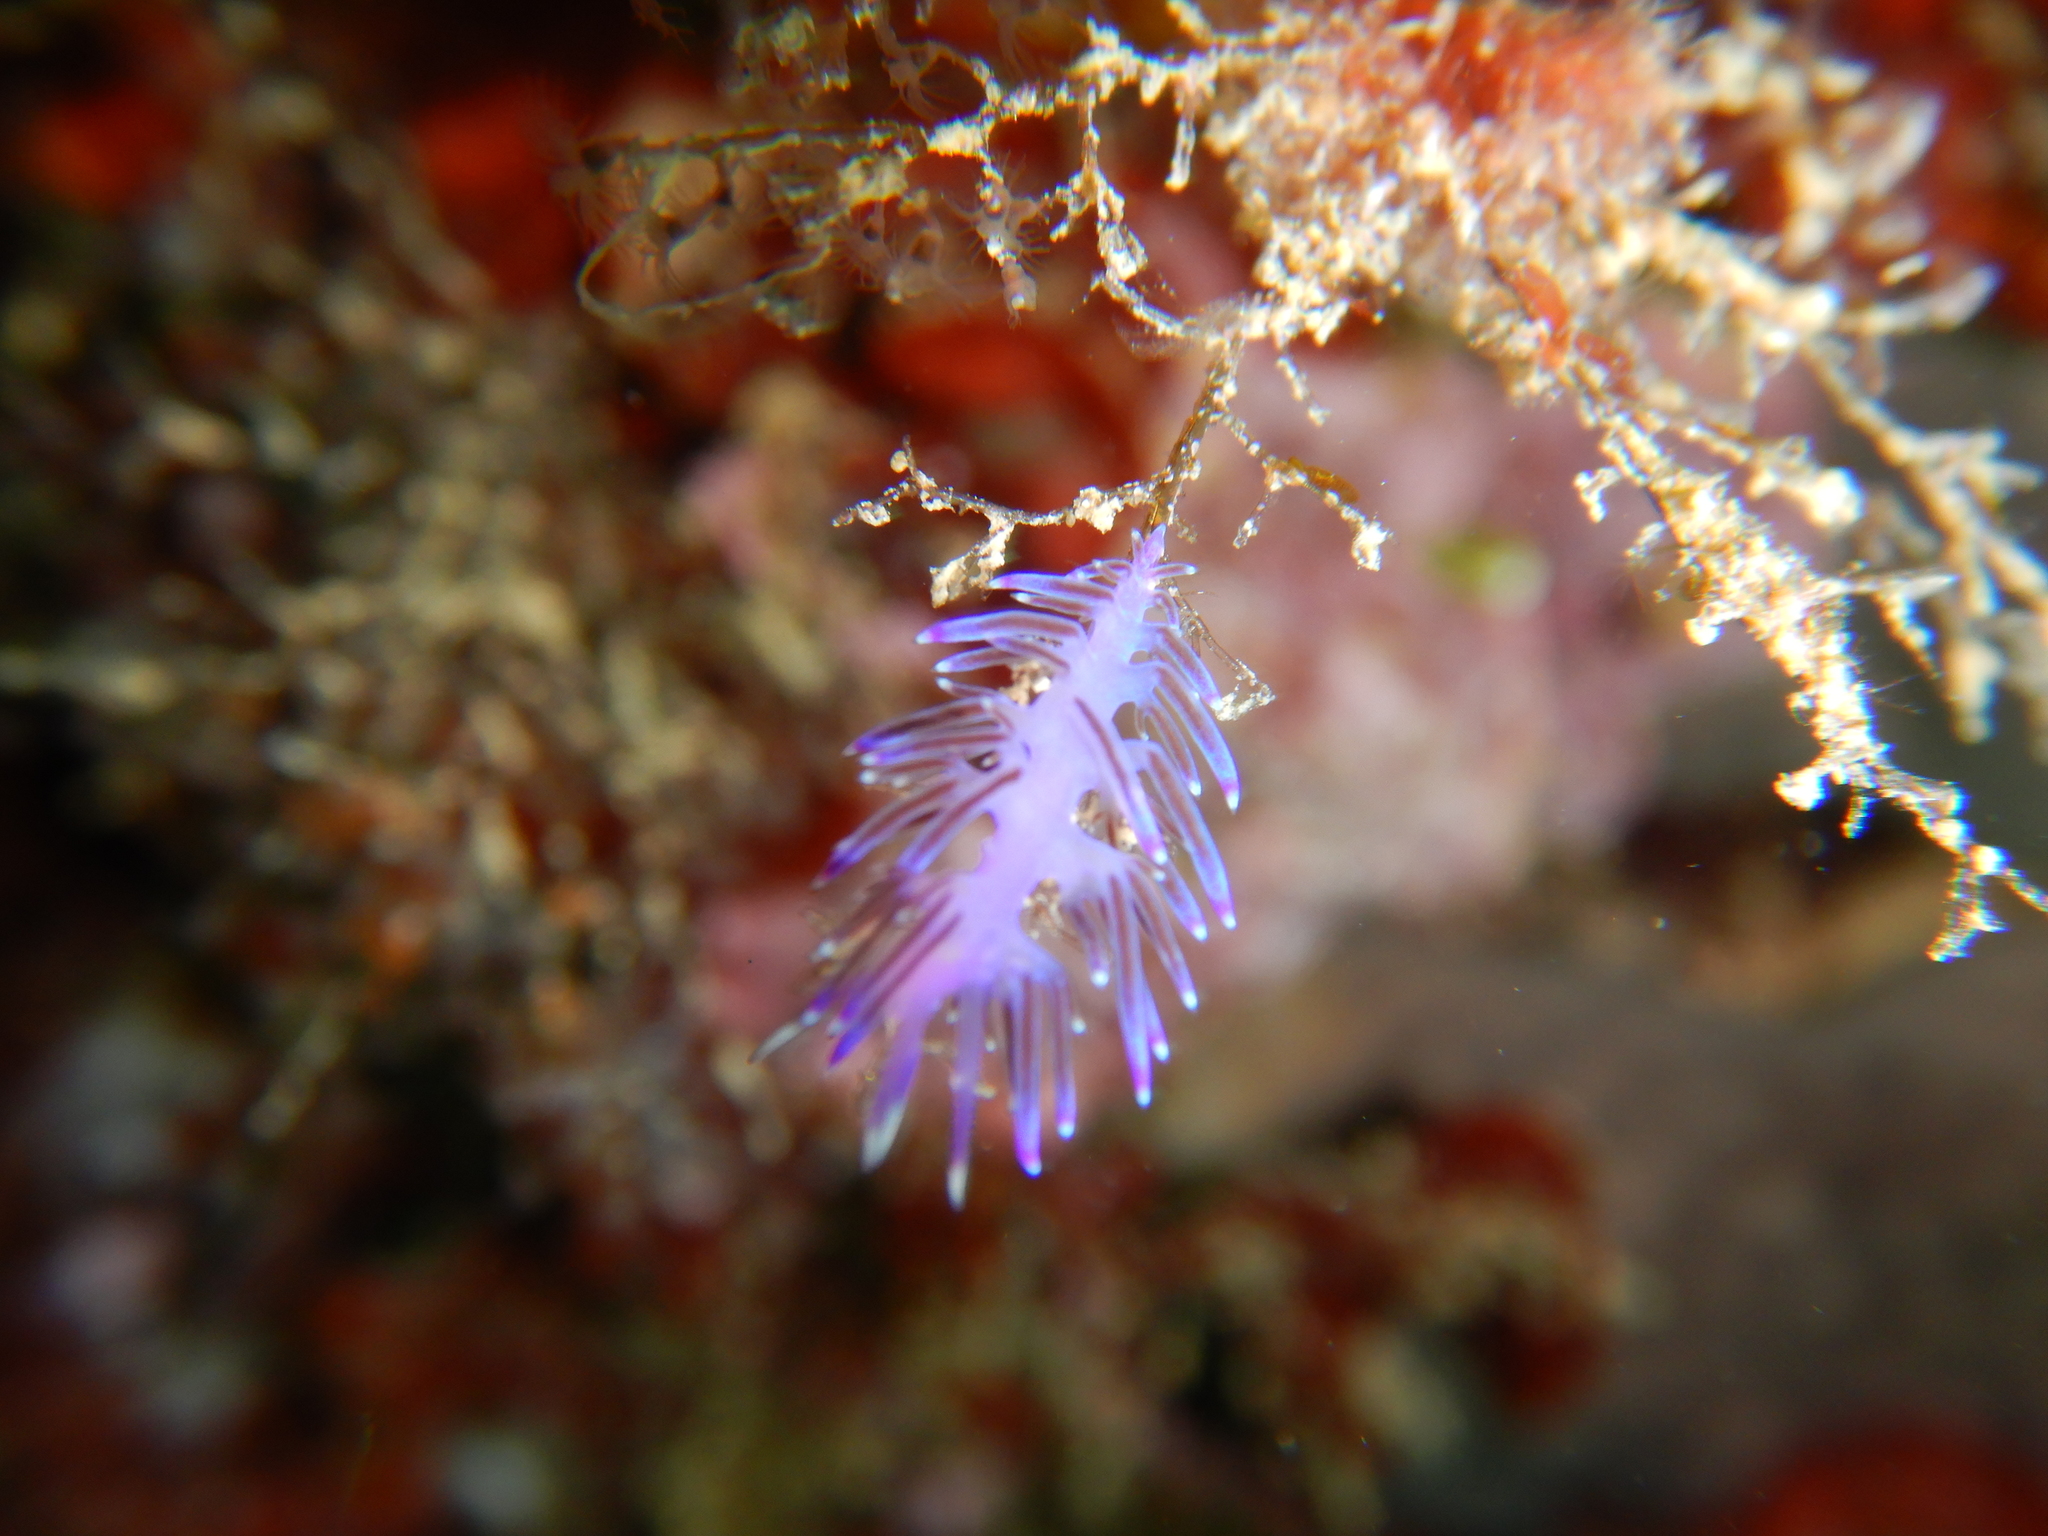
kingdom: Animalia
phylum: Mollusca
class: Gastropoda
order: Nudibranchia
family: Flabellinidae
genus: Flabellina
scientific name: Flabellina affinis
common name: Mediterranean violet aeolid
